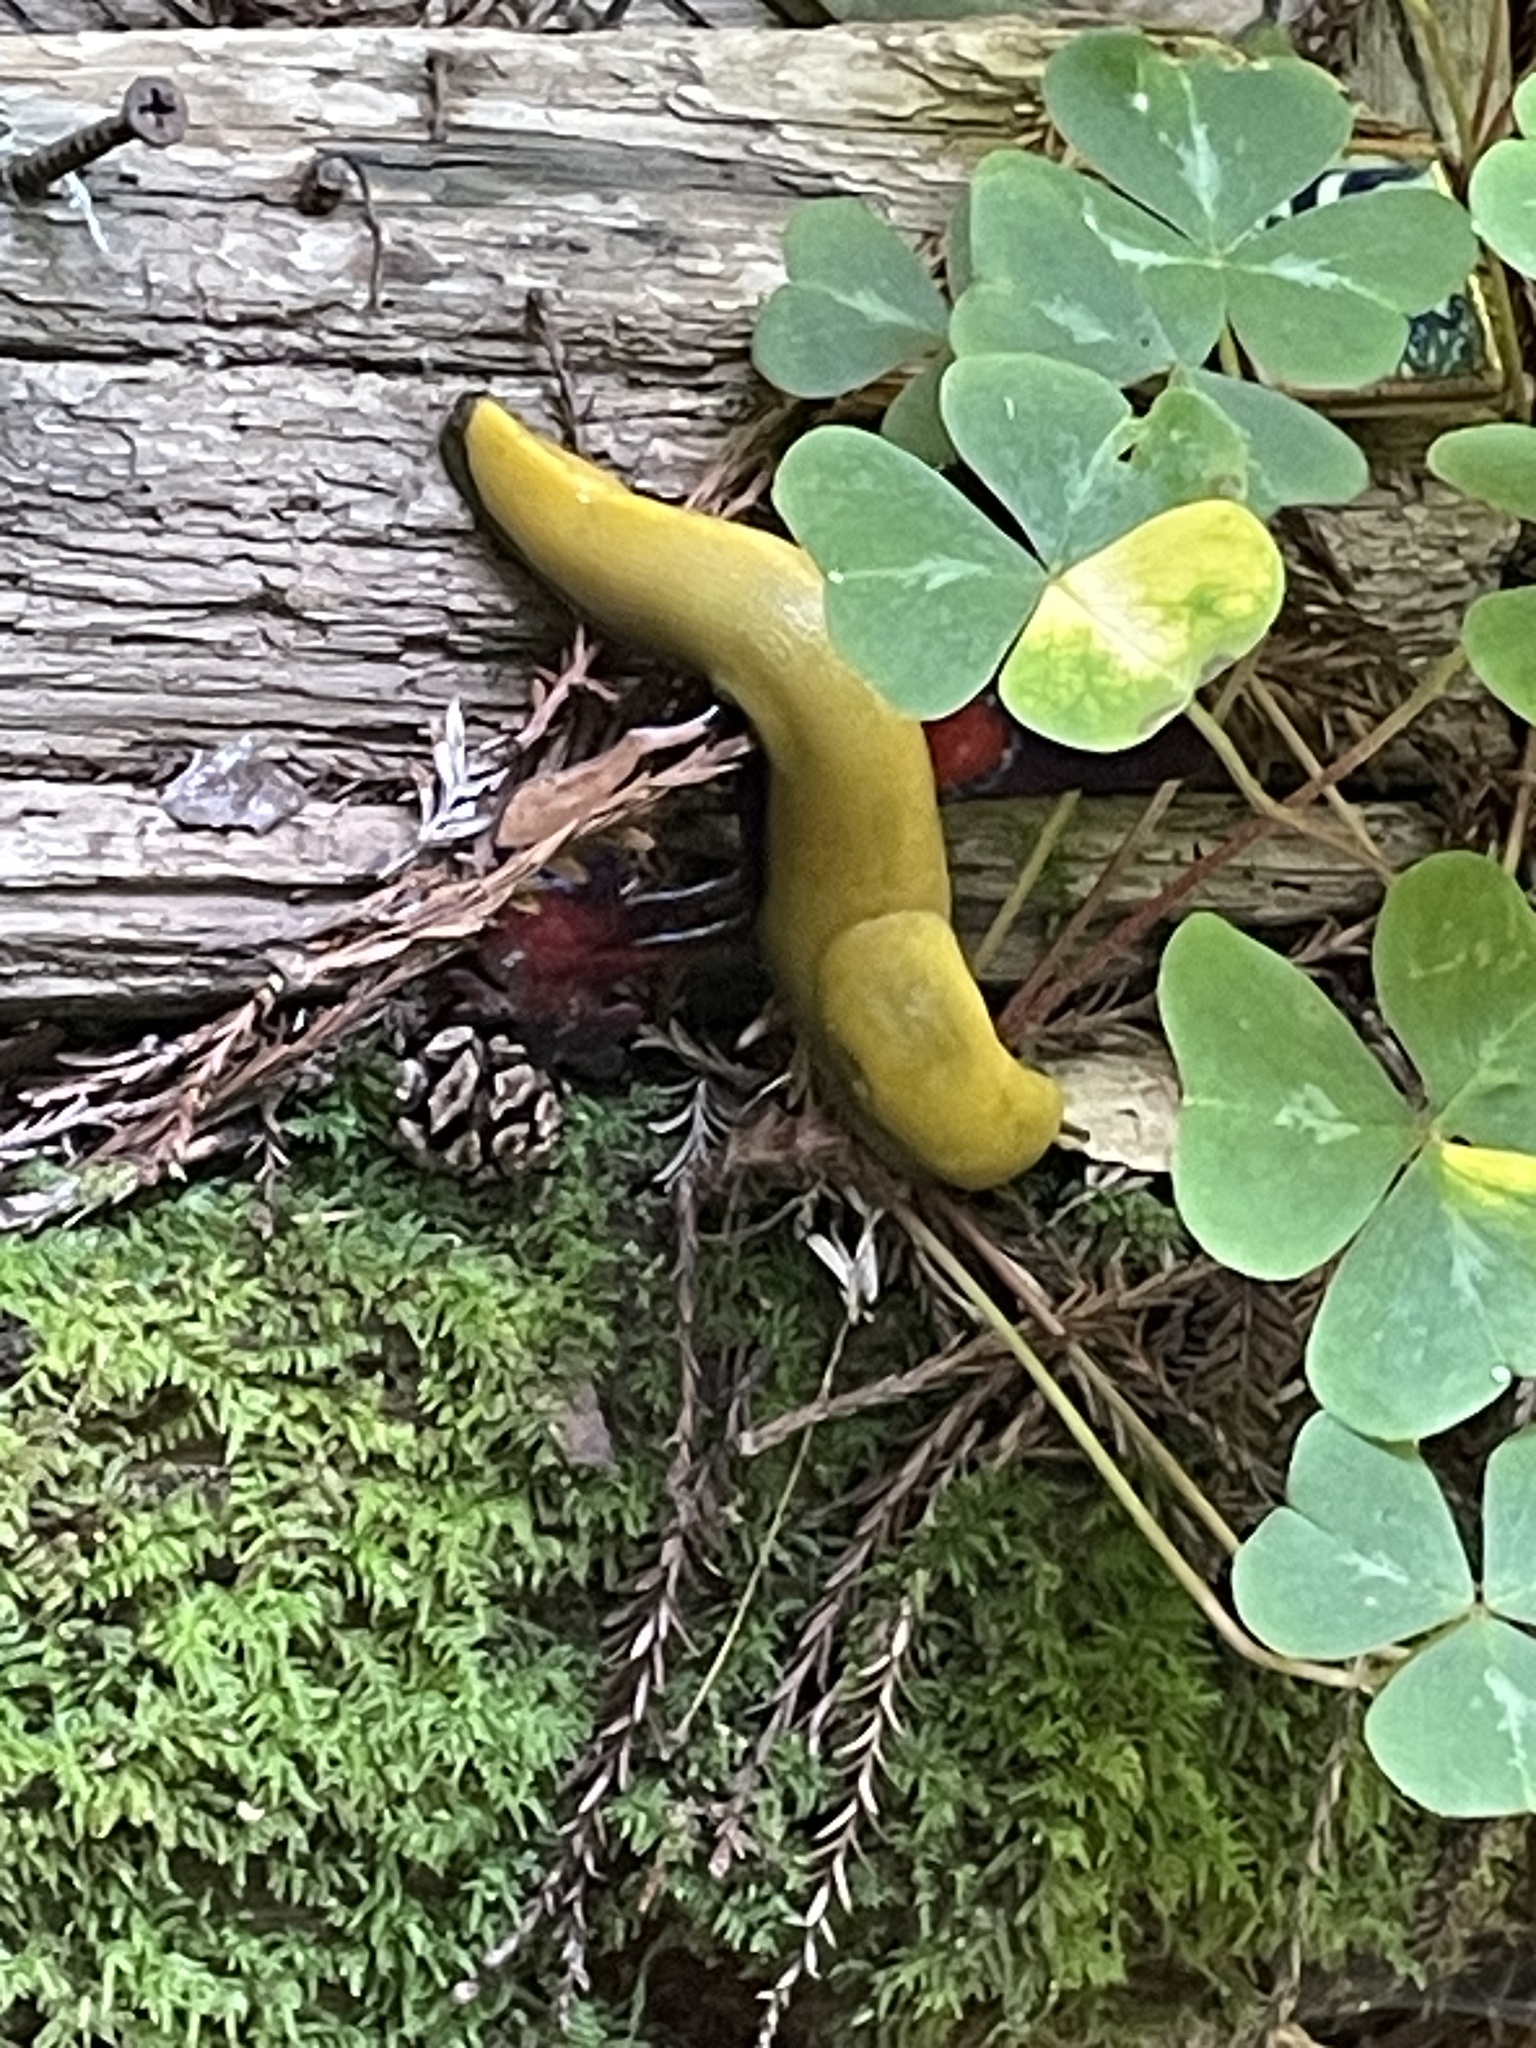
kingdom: Animalia
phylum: Mollusca
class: Gastropoda
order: Stylommatophora
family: Ariolimacidae
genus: Ariolimax
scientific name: Ariolimax dolichophallus
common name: Slender banana slug
